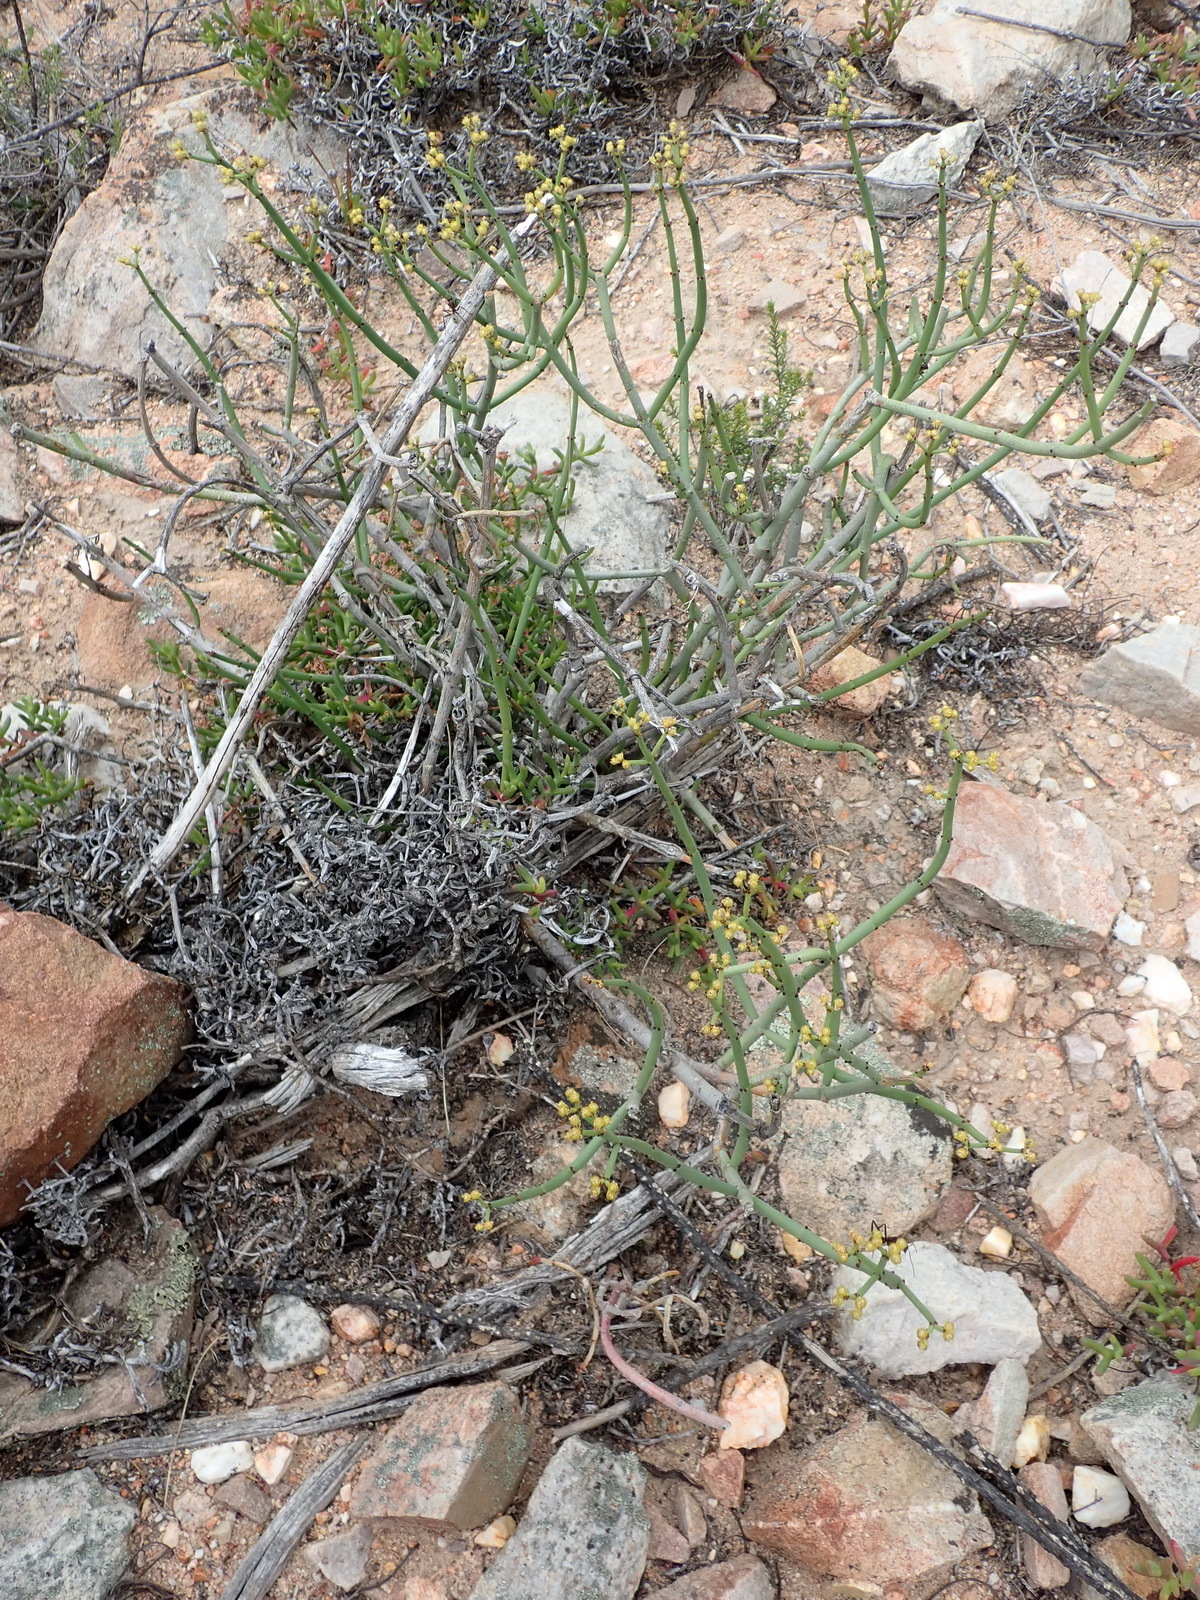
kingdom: Plantae
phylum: Tracheophyta
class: Magnoliopsida
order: Malpighiales
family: Euphorbiaceae
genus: Euphorbia
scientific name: Euphorbia burmanni
